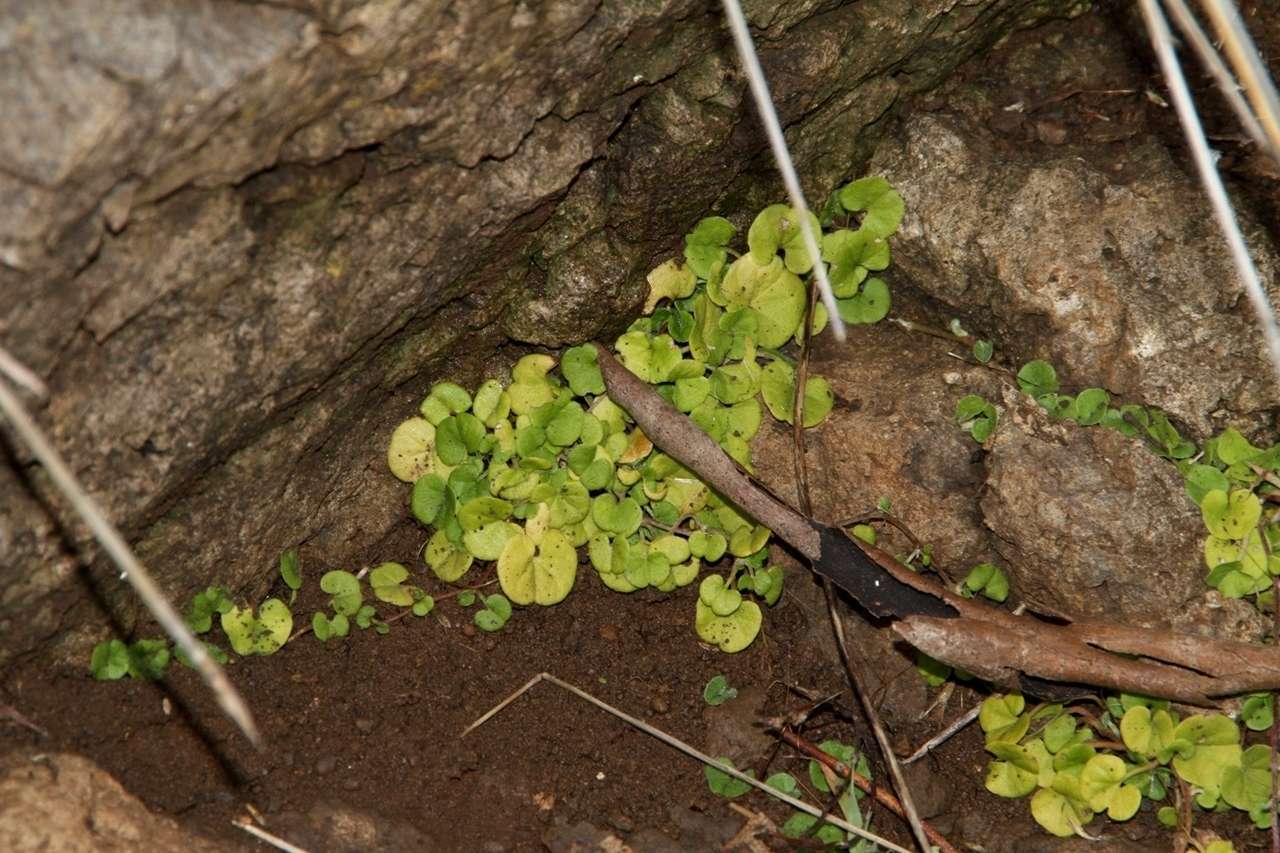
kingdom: Plantae
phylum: Tracheophyta
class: Magnoliopsida
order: Solanales
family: Convolvulaceae
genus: Dichondra
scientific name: Dichondra repens
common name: Kidneyweed
